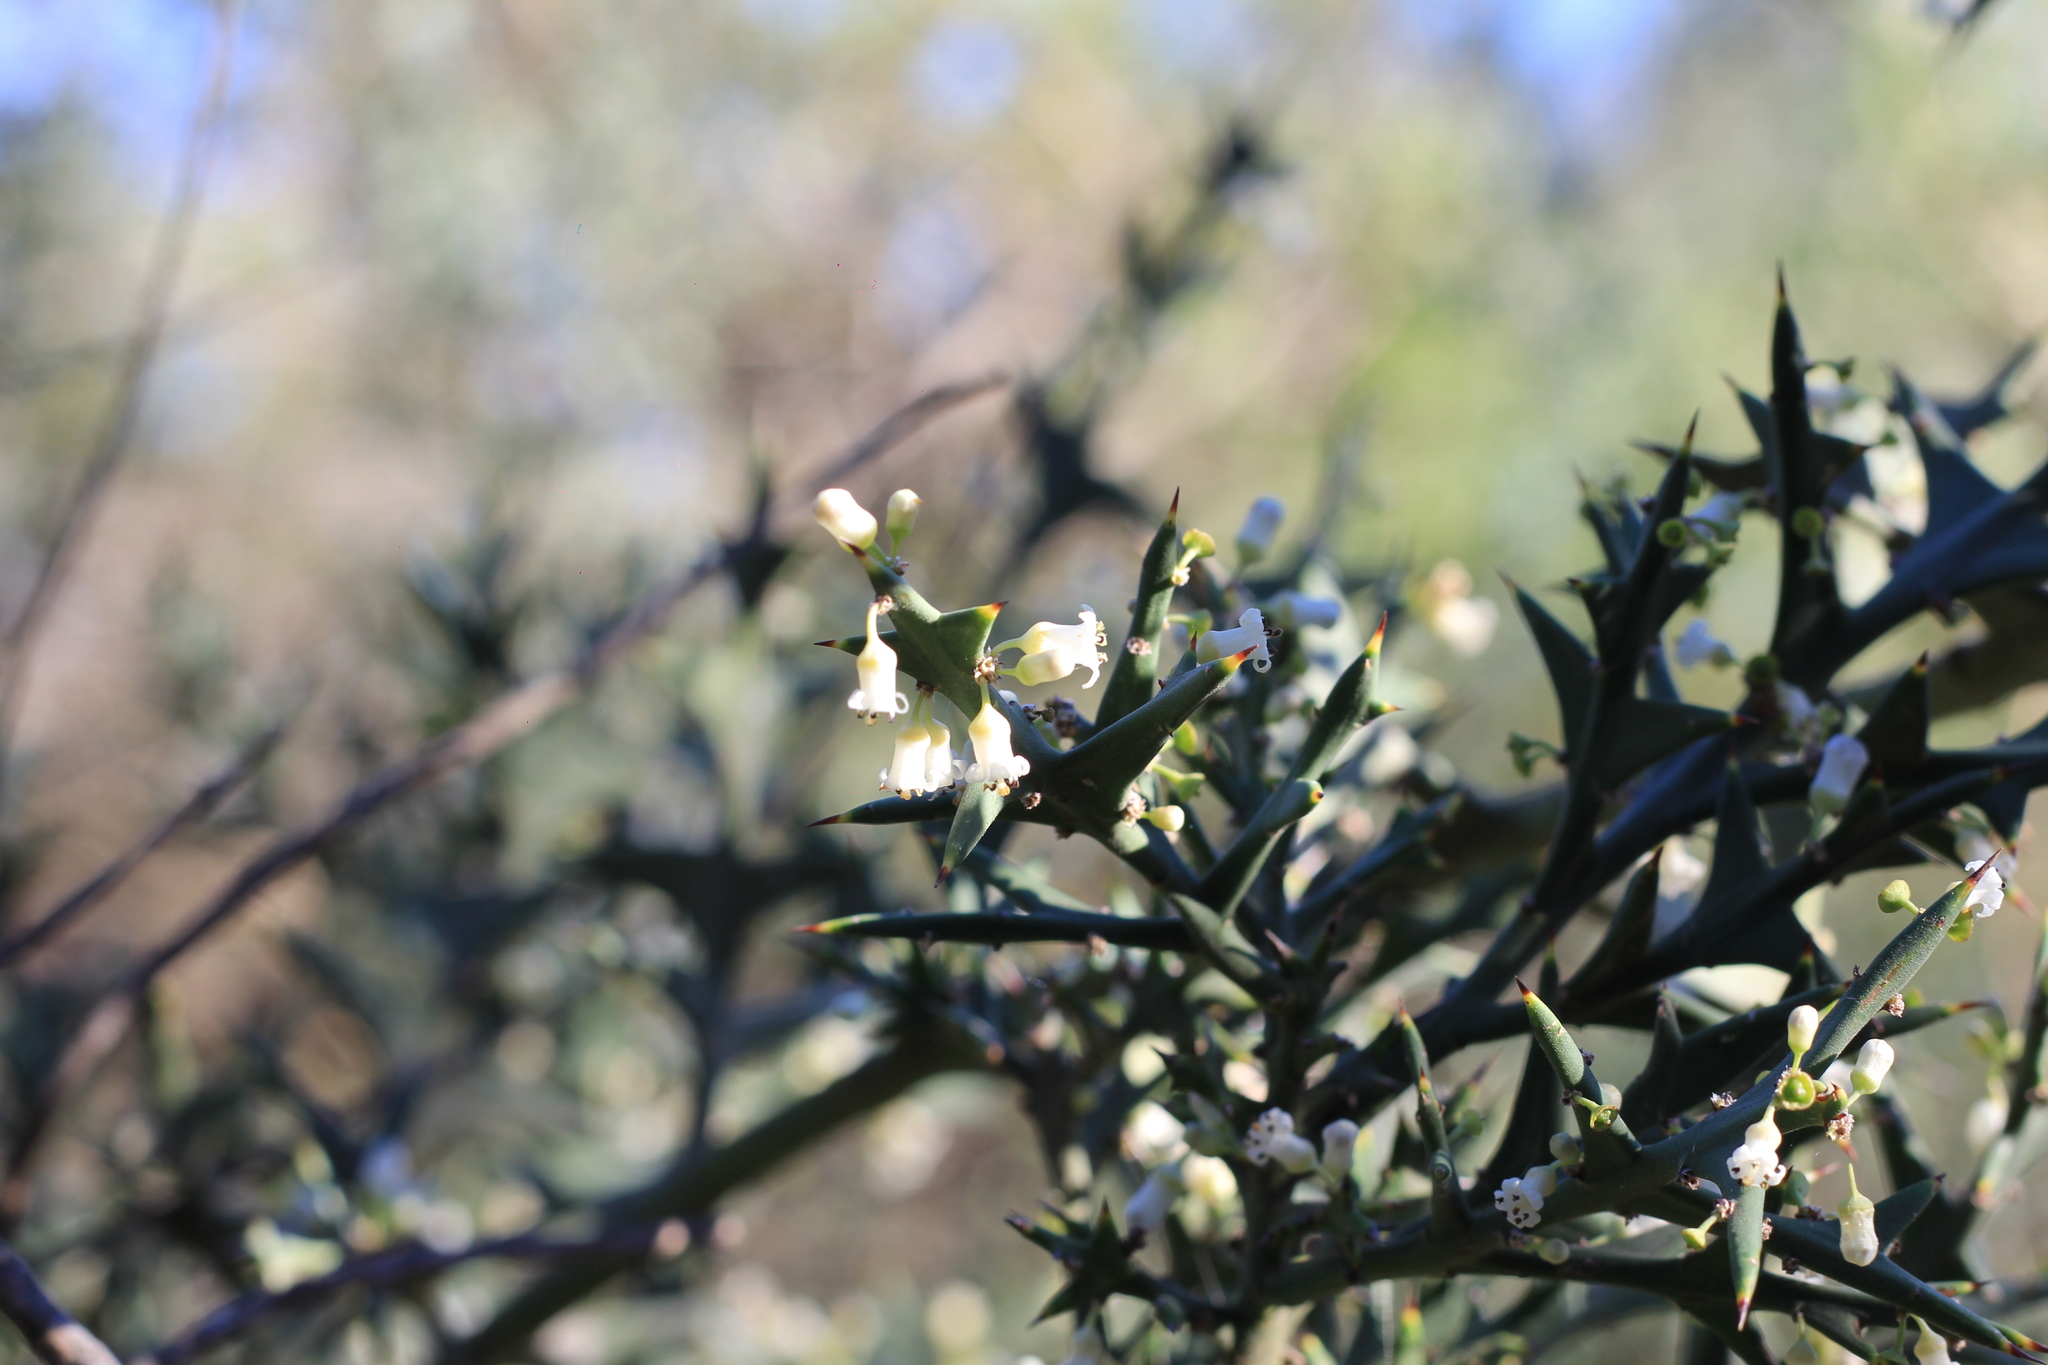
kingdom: Plantae
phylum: Tracheophyta
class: Magnoliopsida
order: Rosales
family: Rhamnaceae
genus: Colletia
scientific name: Colletia paradoxa
